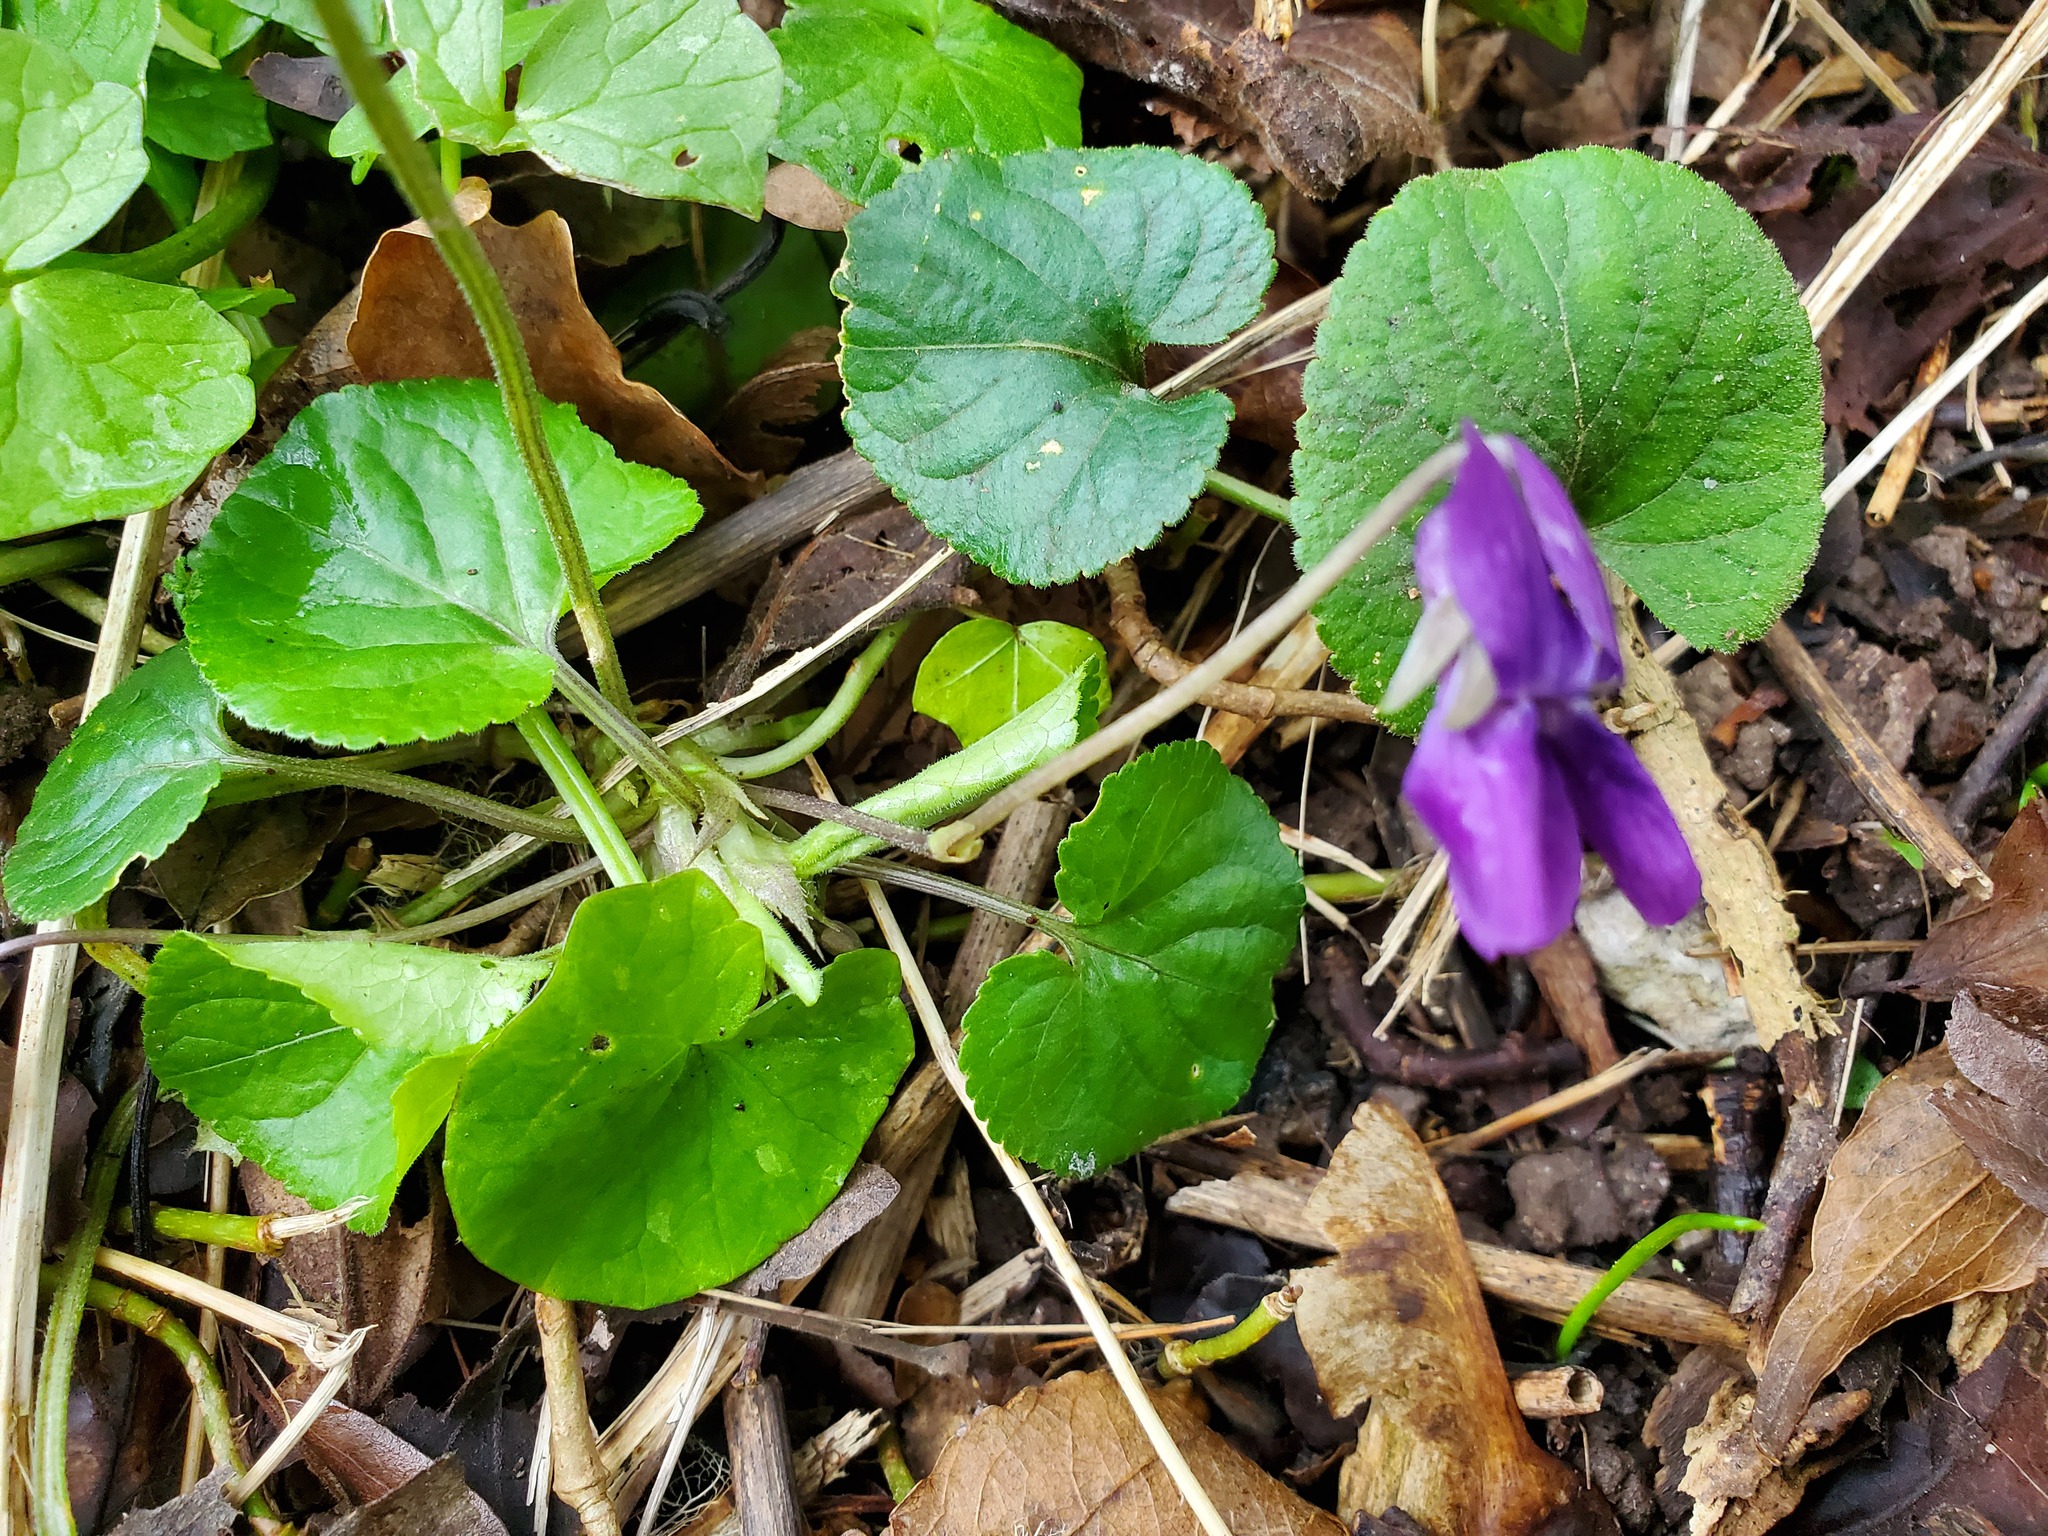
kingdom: Plantae
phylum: Tracheophyta
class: Magnoliopsida
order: Malpighiales
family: Violaceae
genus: Viola
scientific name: Viola odorata
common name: Sweet violet
